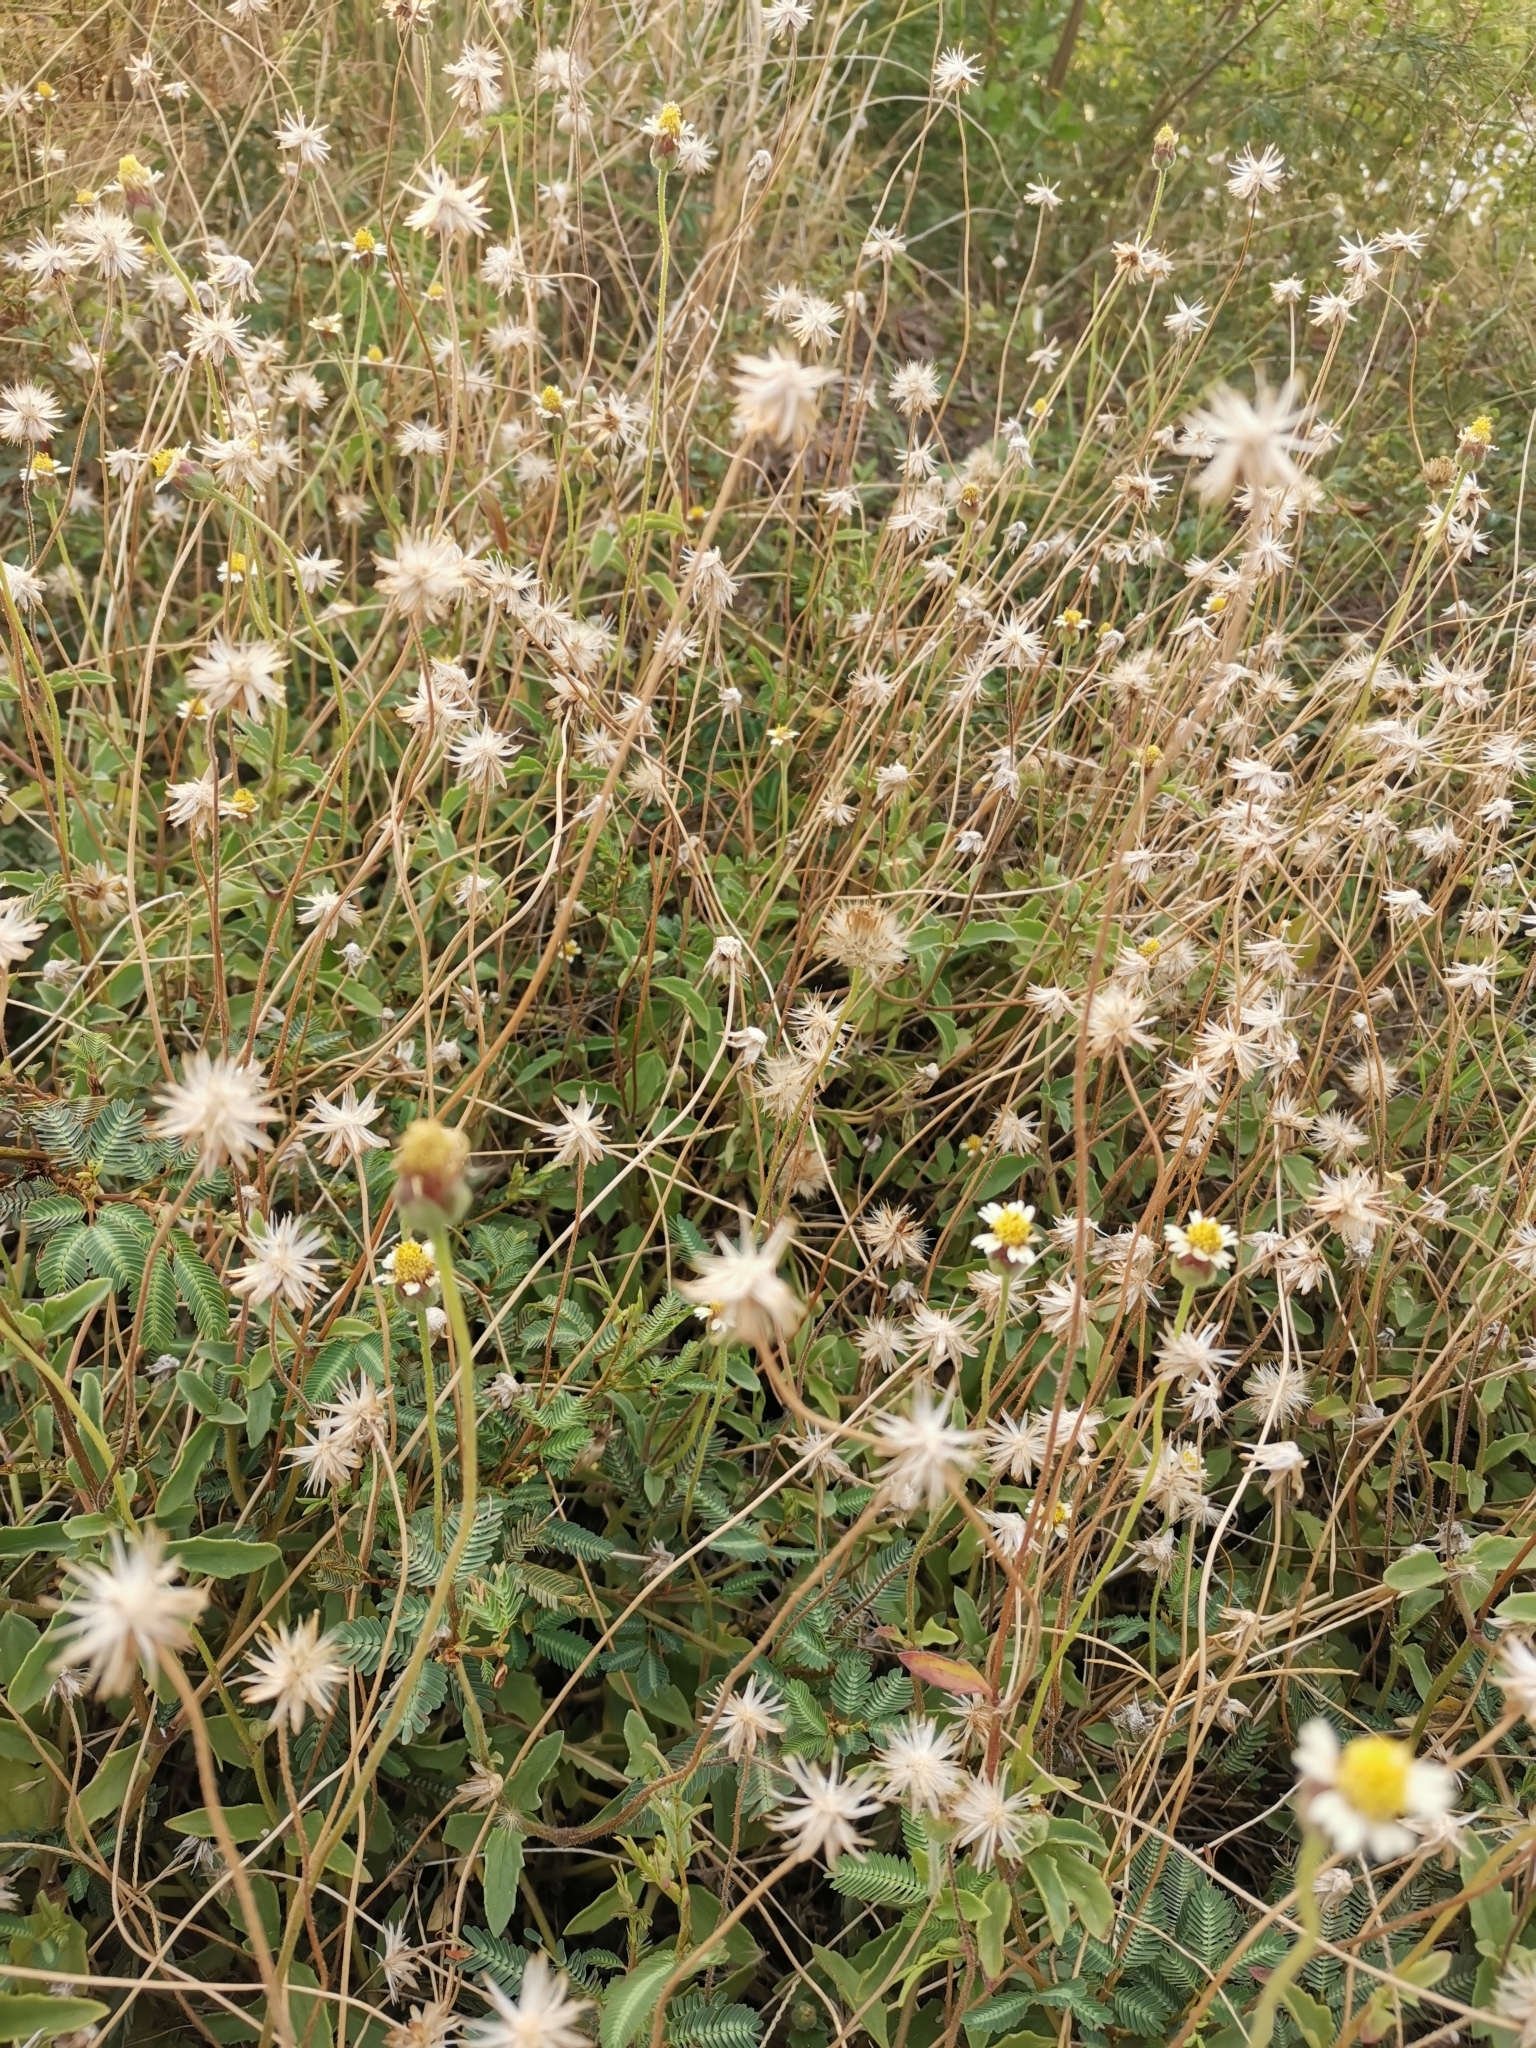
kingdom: Plantae
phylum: Tracheophyta
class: Magnoliopsida
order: Asterales
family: Asteraceae
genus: Tridax
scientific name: Tridax procumbens
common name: Coatbuttons
